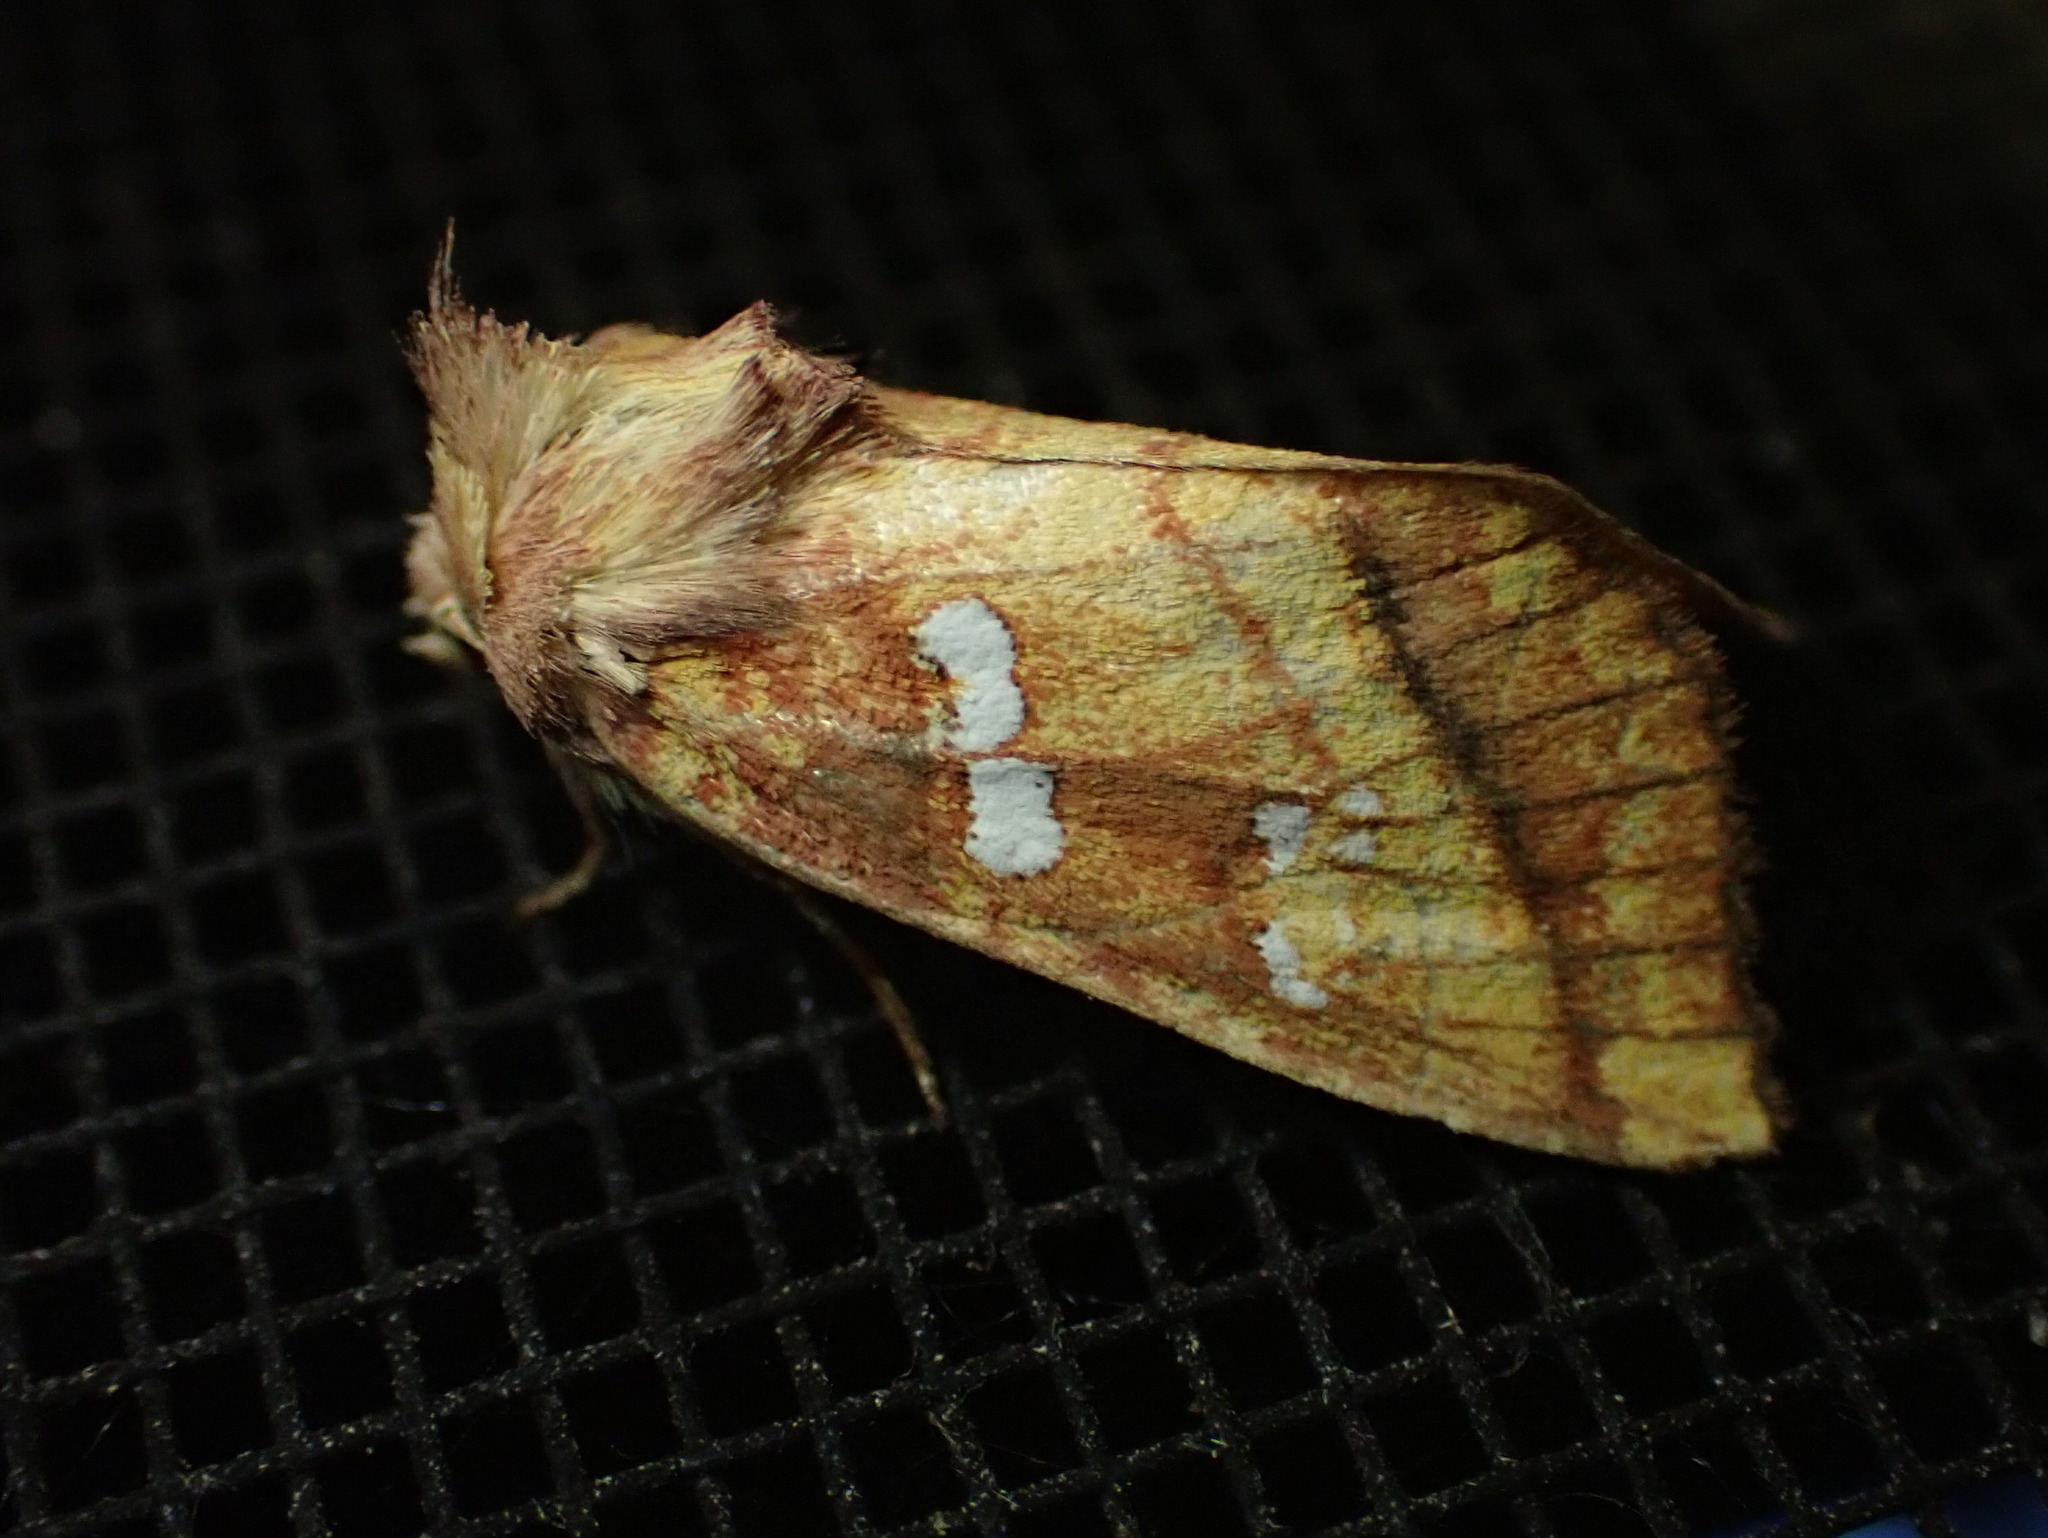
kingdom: Animalia
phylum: Arthropoda
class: Insecta
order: Lepidoptera
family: Noctuidae
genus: Papaipema
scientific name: Papaipema pterisii
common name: Bracken borer moth
